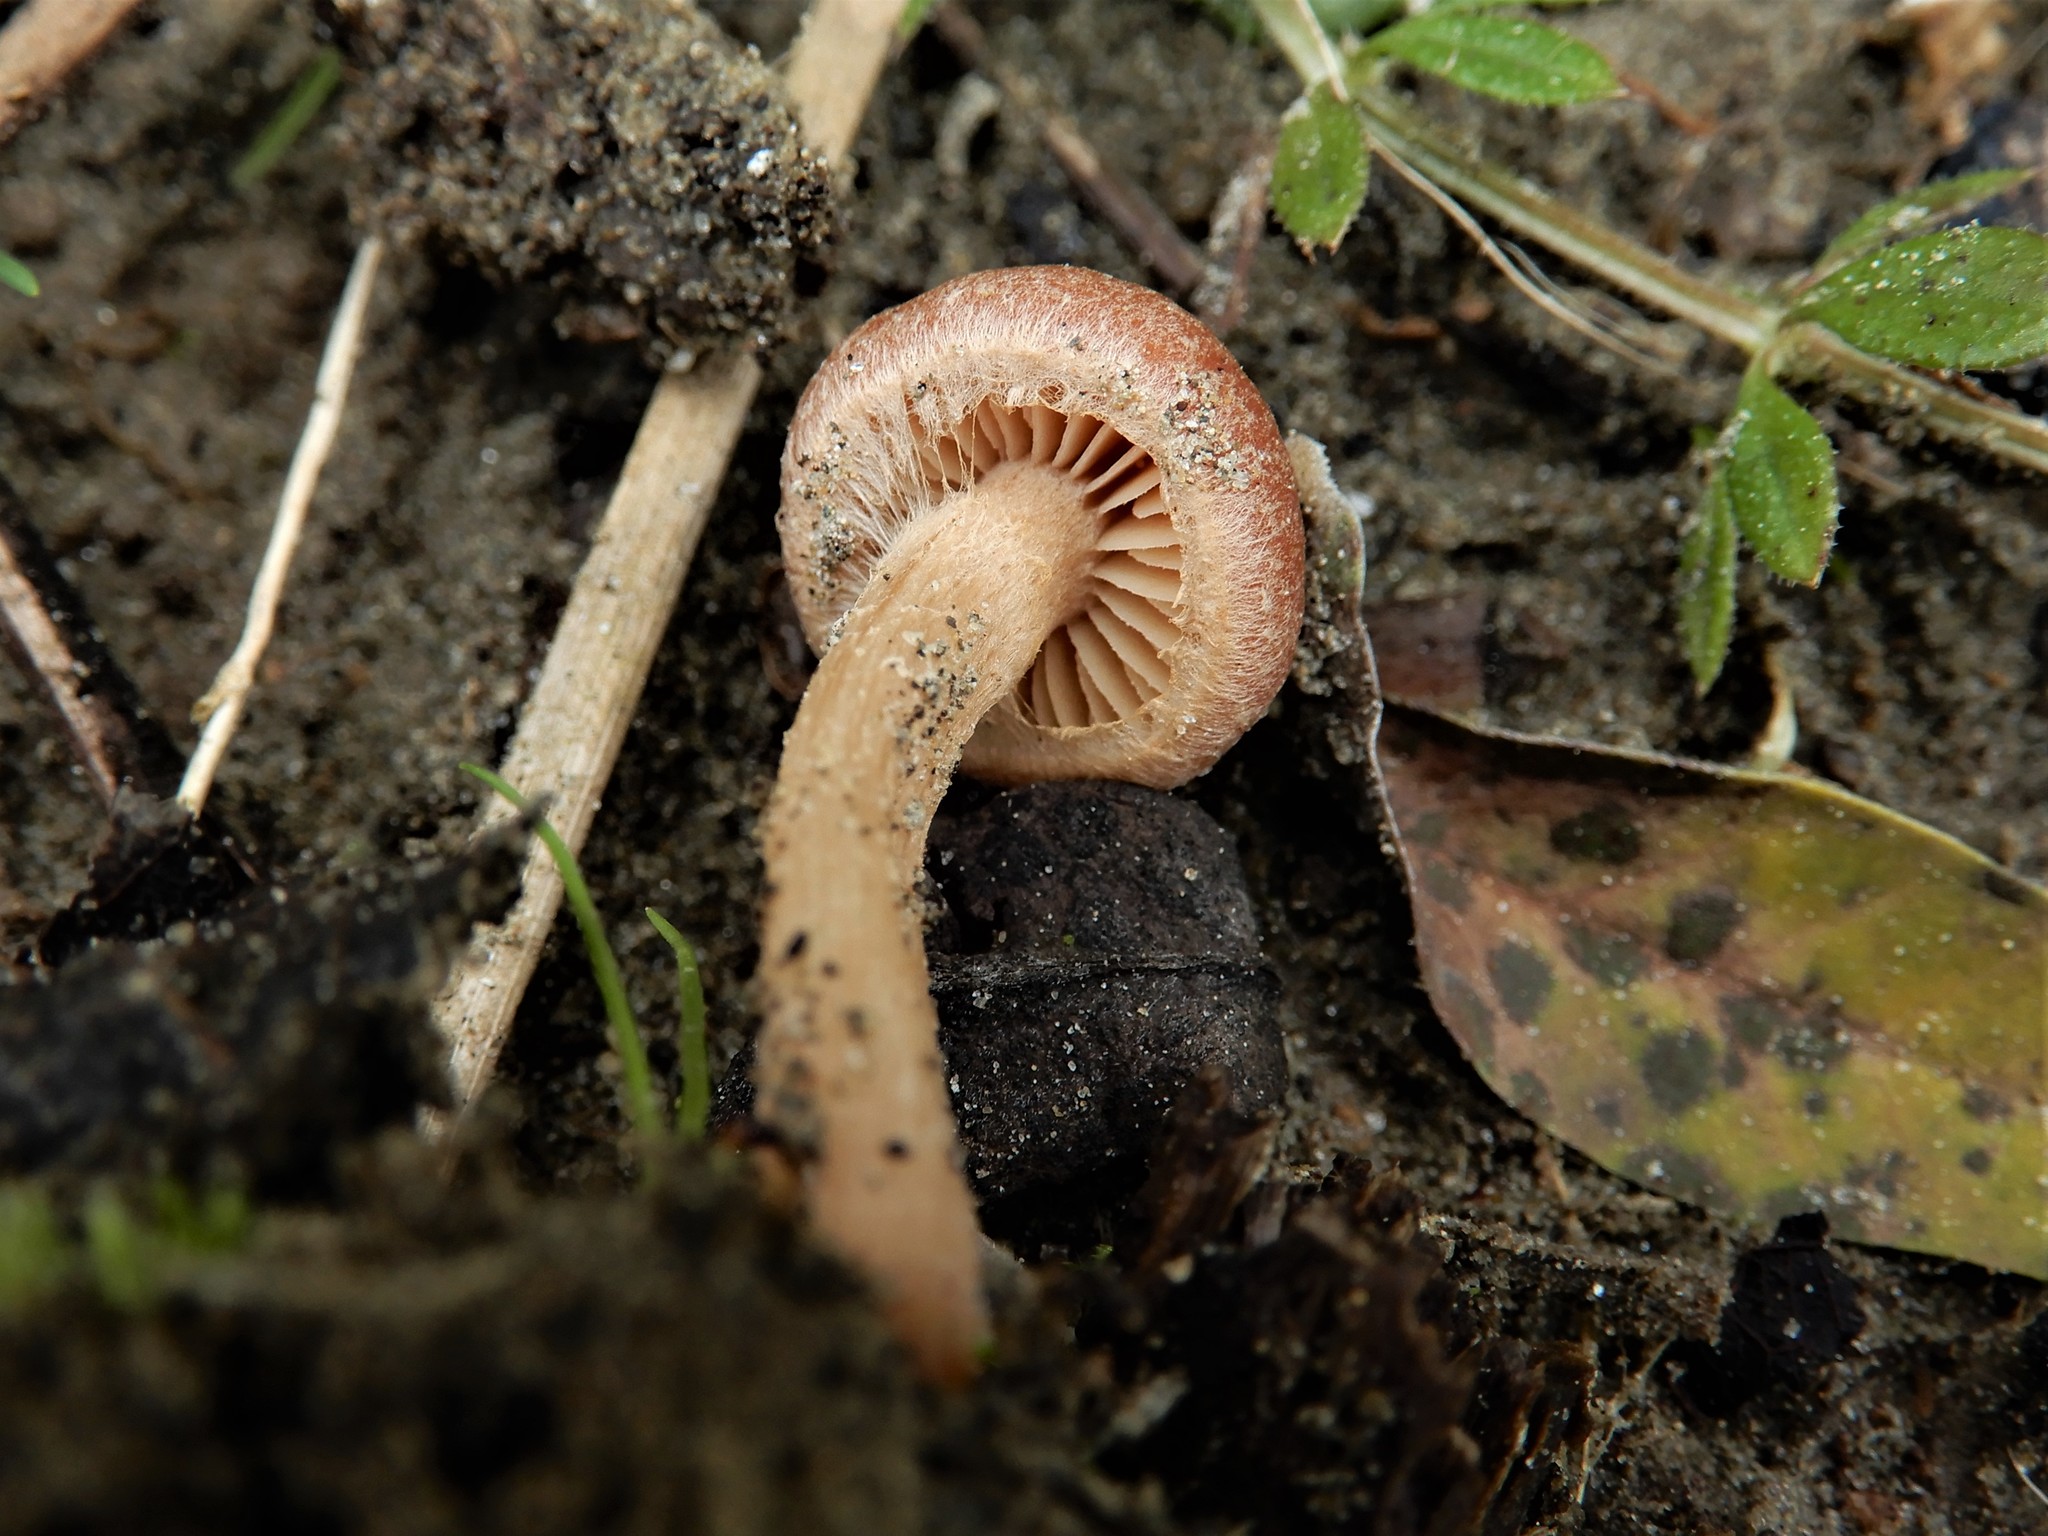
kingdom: Fungi
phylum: Basidiomycota
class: Agaricomycetes
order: Agaricales
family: Tubariaceae
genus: Tubaria
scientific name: Tubaria furfuracea
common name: Scurfy twiglet
